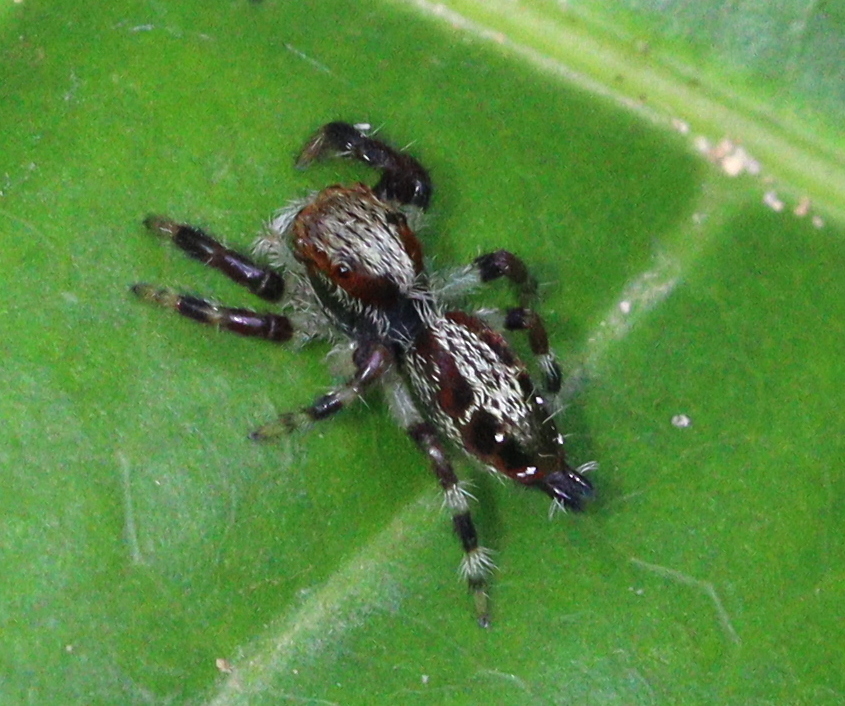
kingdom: Animalia
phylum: Arthropoda
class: Arachnida
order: Araneae
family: Salticidae
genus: Hyllus
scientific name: Hyllus keratodes
